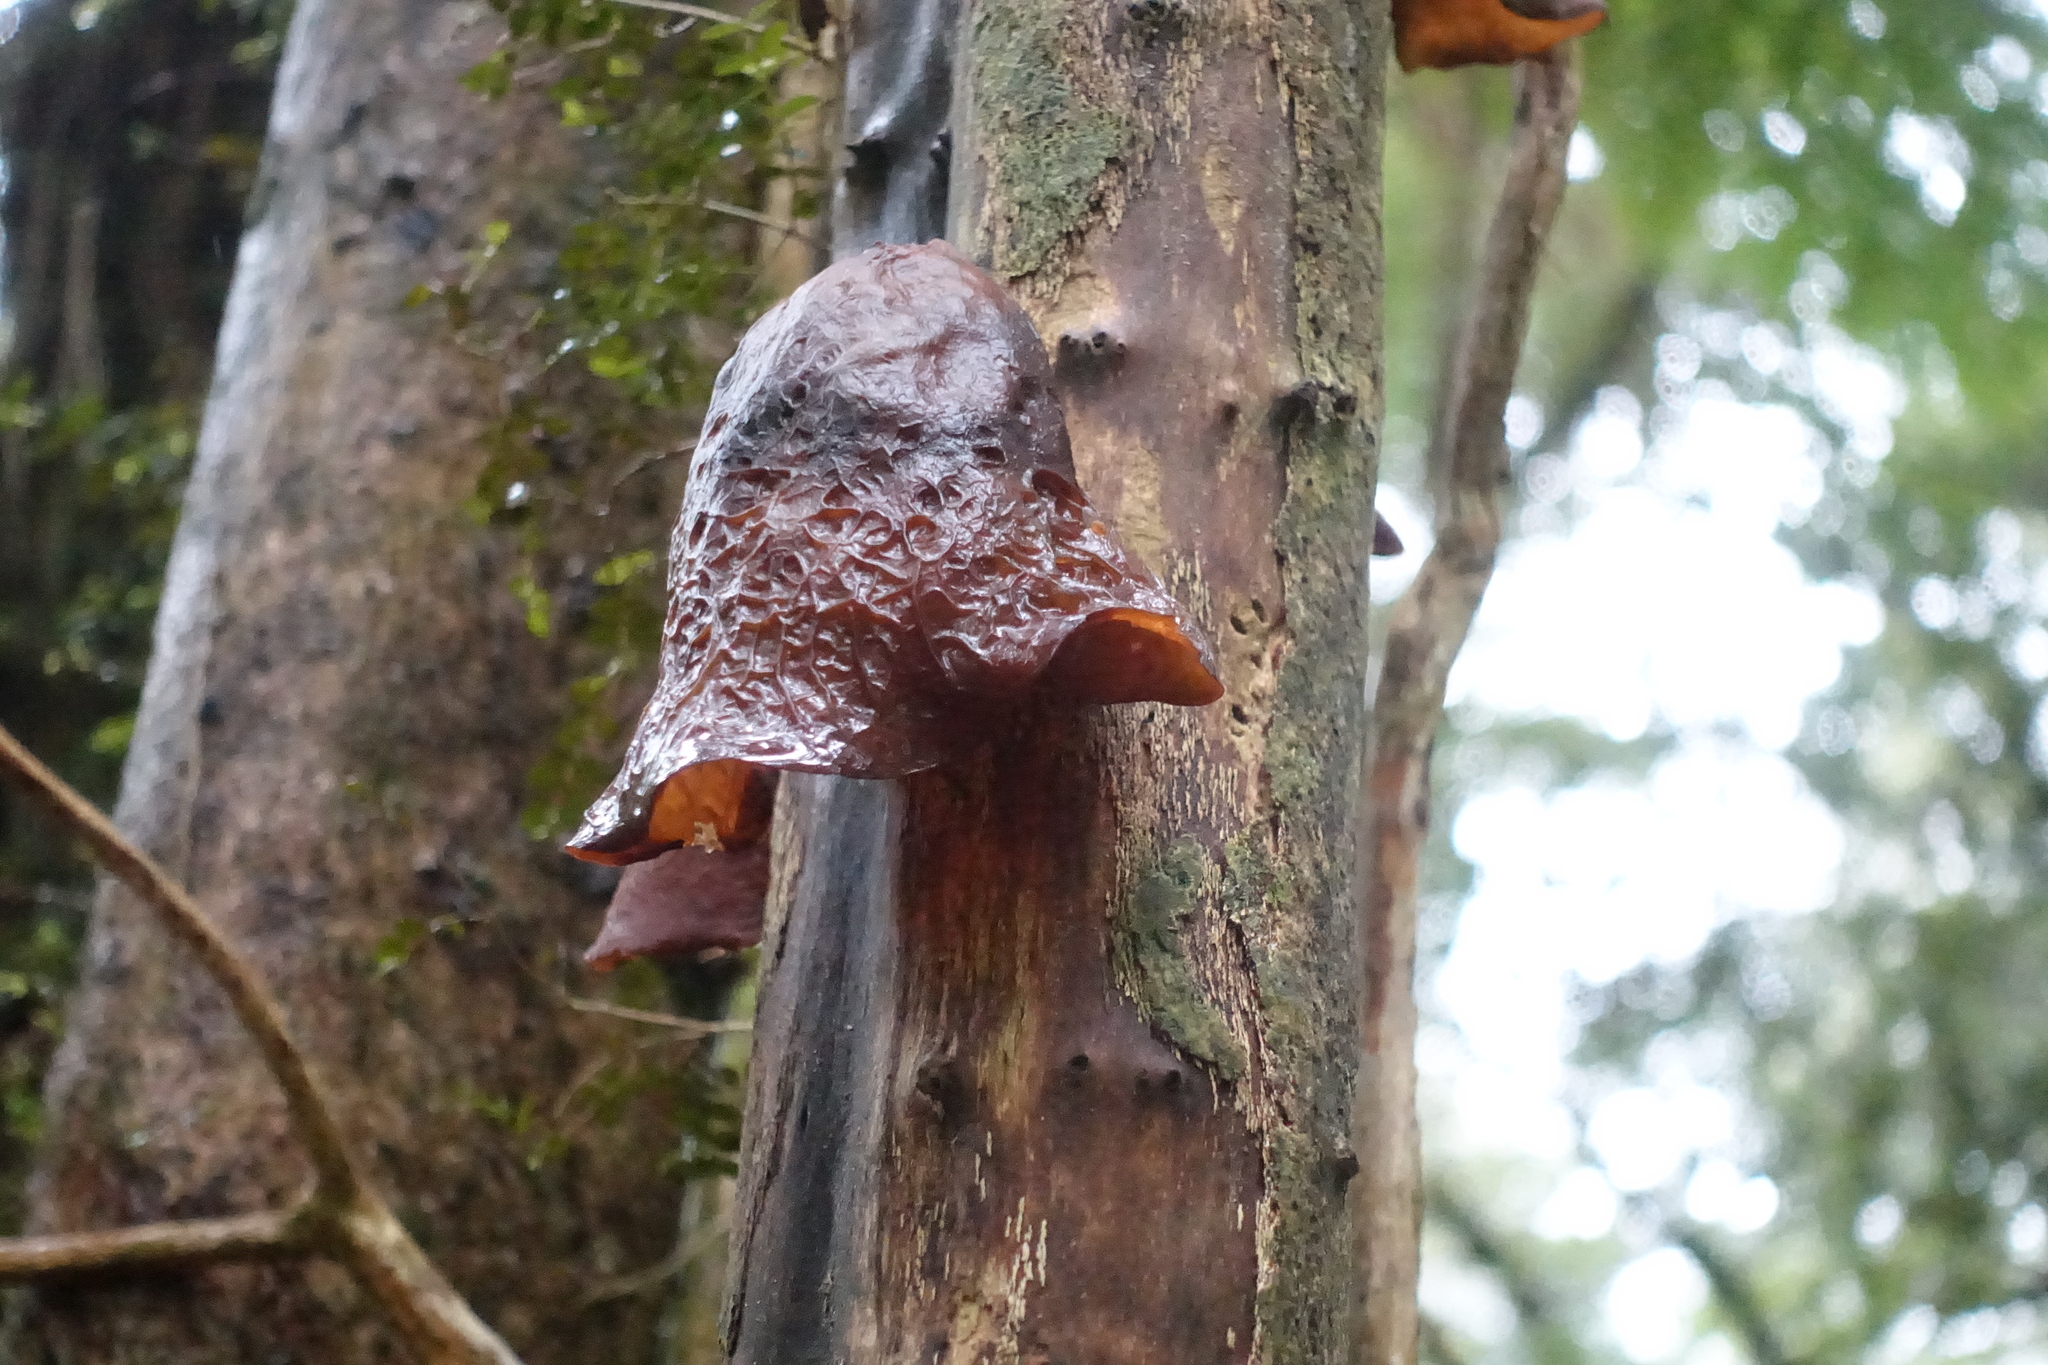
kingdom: Fungi
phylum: Basidiomycota
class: Agaricomycetes
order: Auriculariales
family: Auriculariaceae
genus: Auricularia
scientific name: Auricularia cornea
